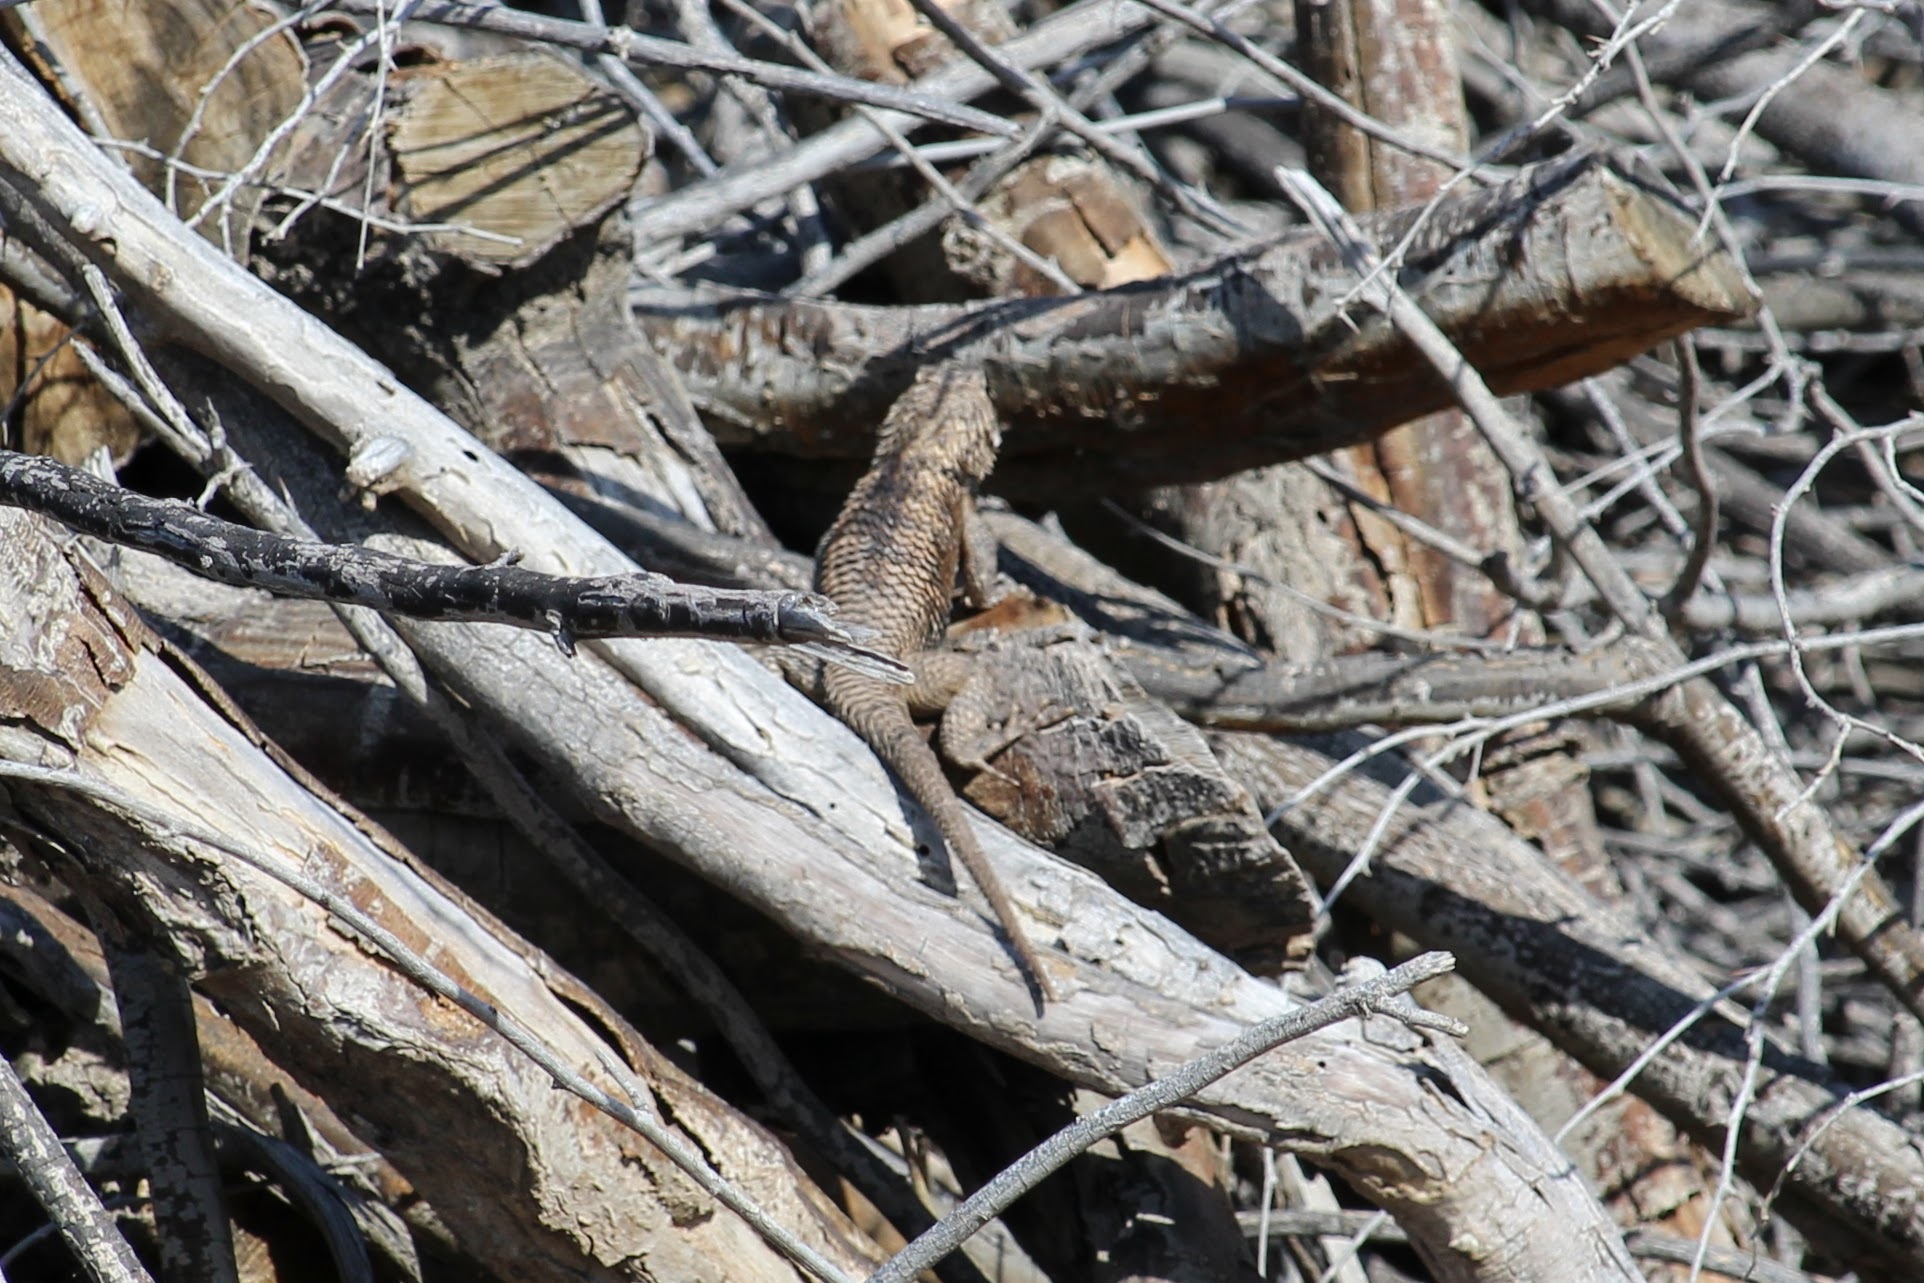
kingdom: Animalia
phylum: Chordata
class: Squamata
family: Phrynosomatidae
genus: Sceloporus
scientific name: Sceloporus magister
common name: Desert spiny lizard
